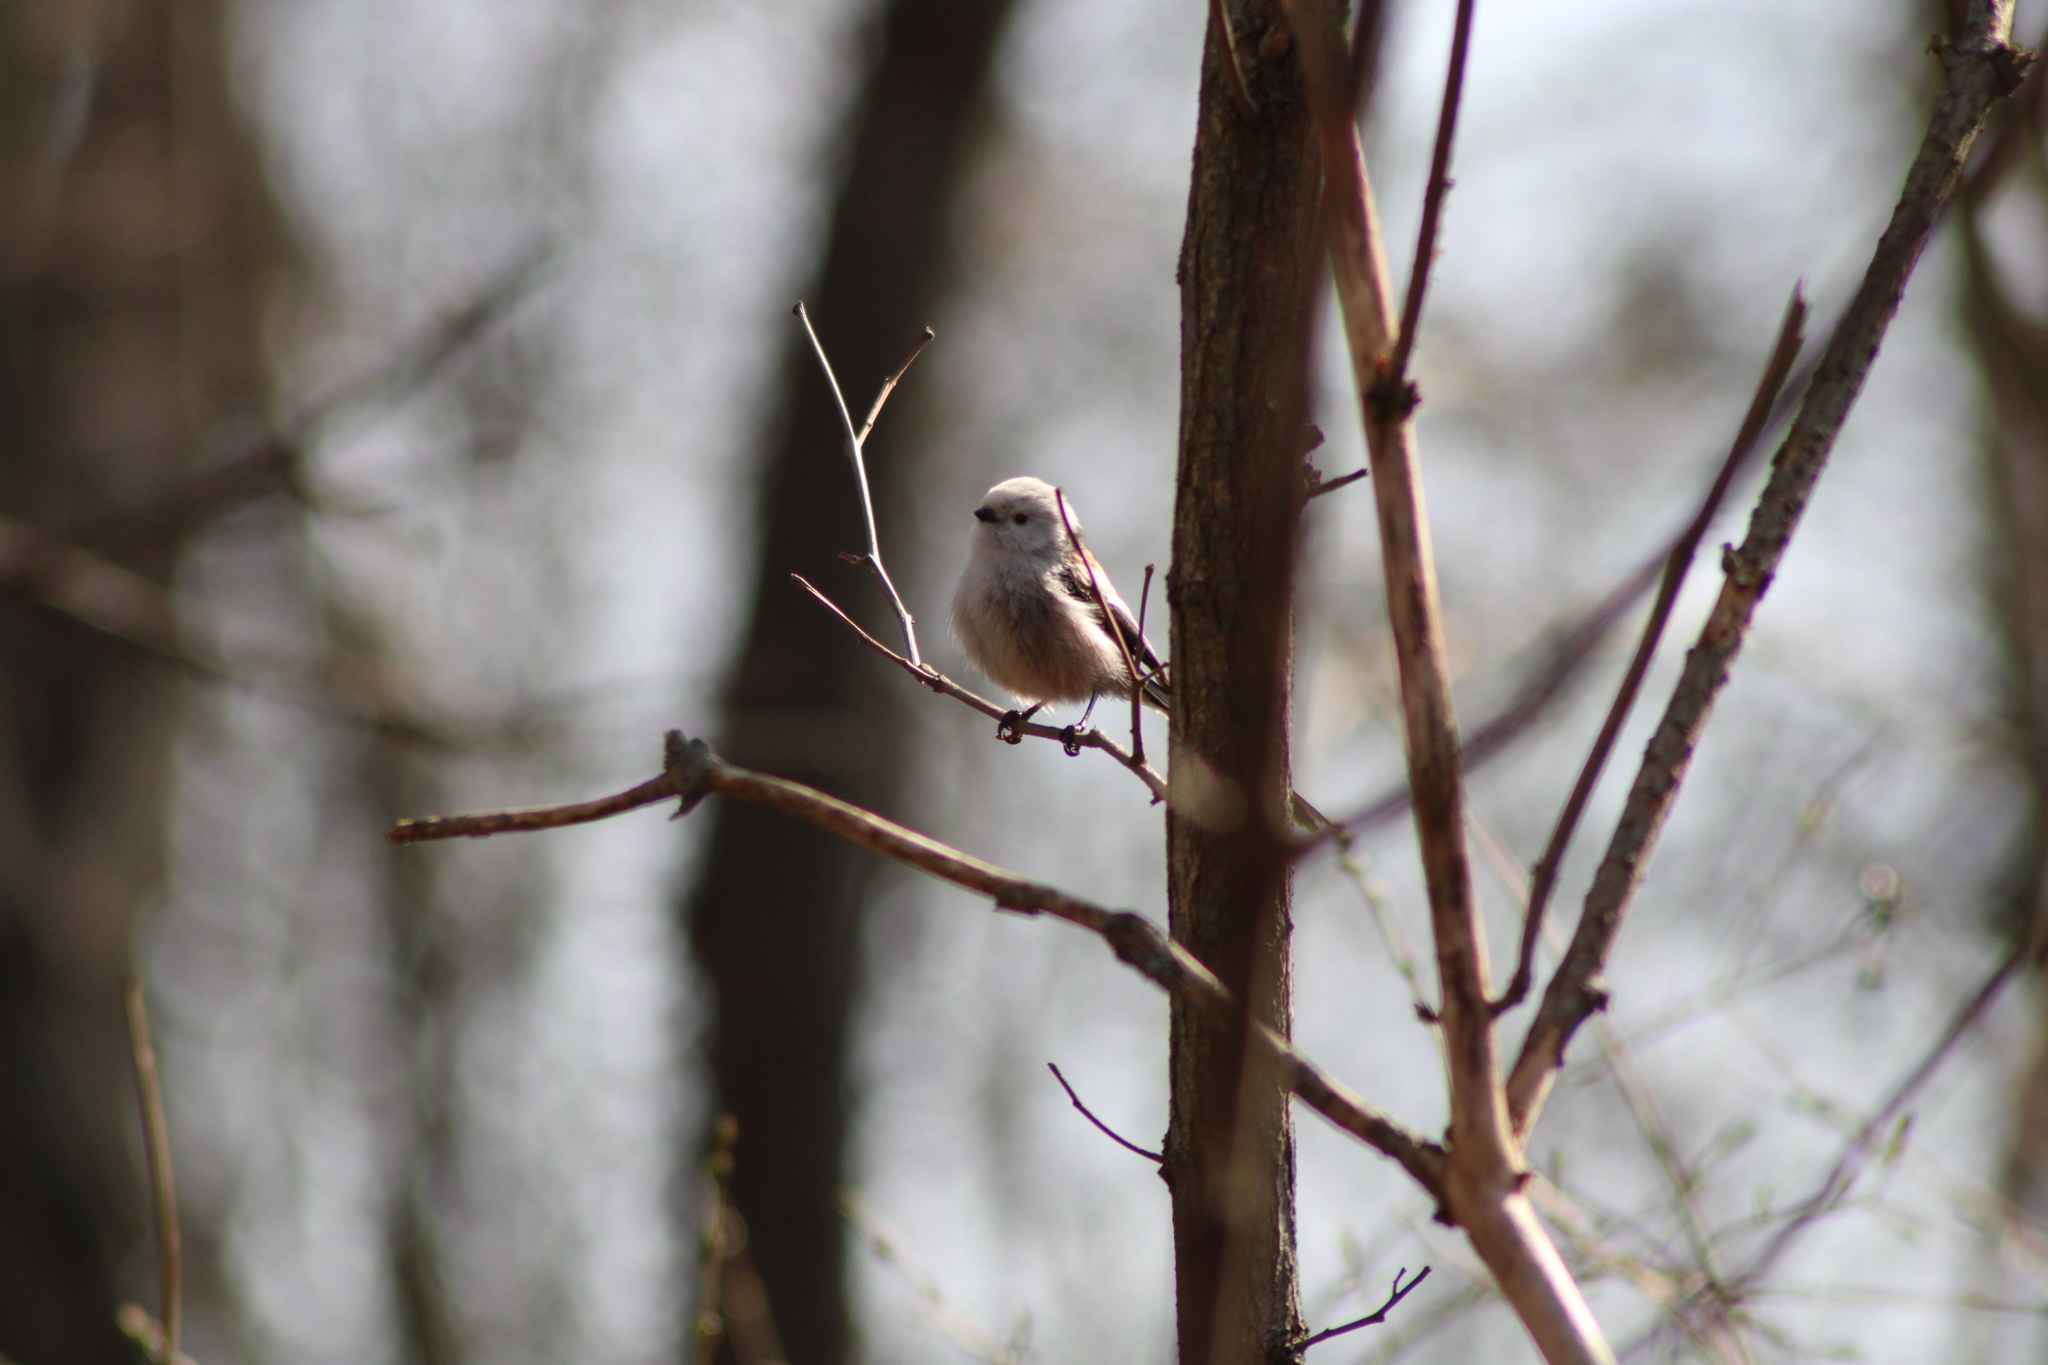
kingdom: Animalia
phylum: Chordata
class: Aves
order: Passeriformes
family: Aegithalidae
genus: Aegithalos
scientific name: Aegithalos caudatus
